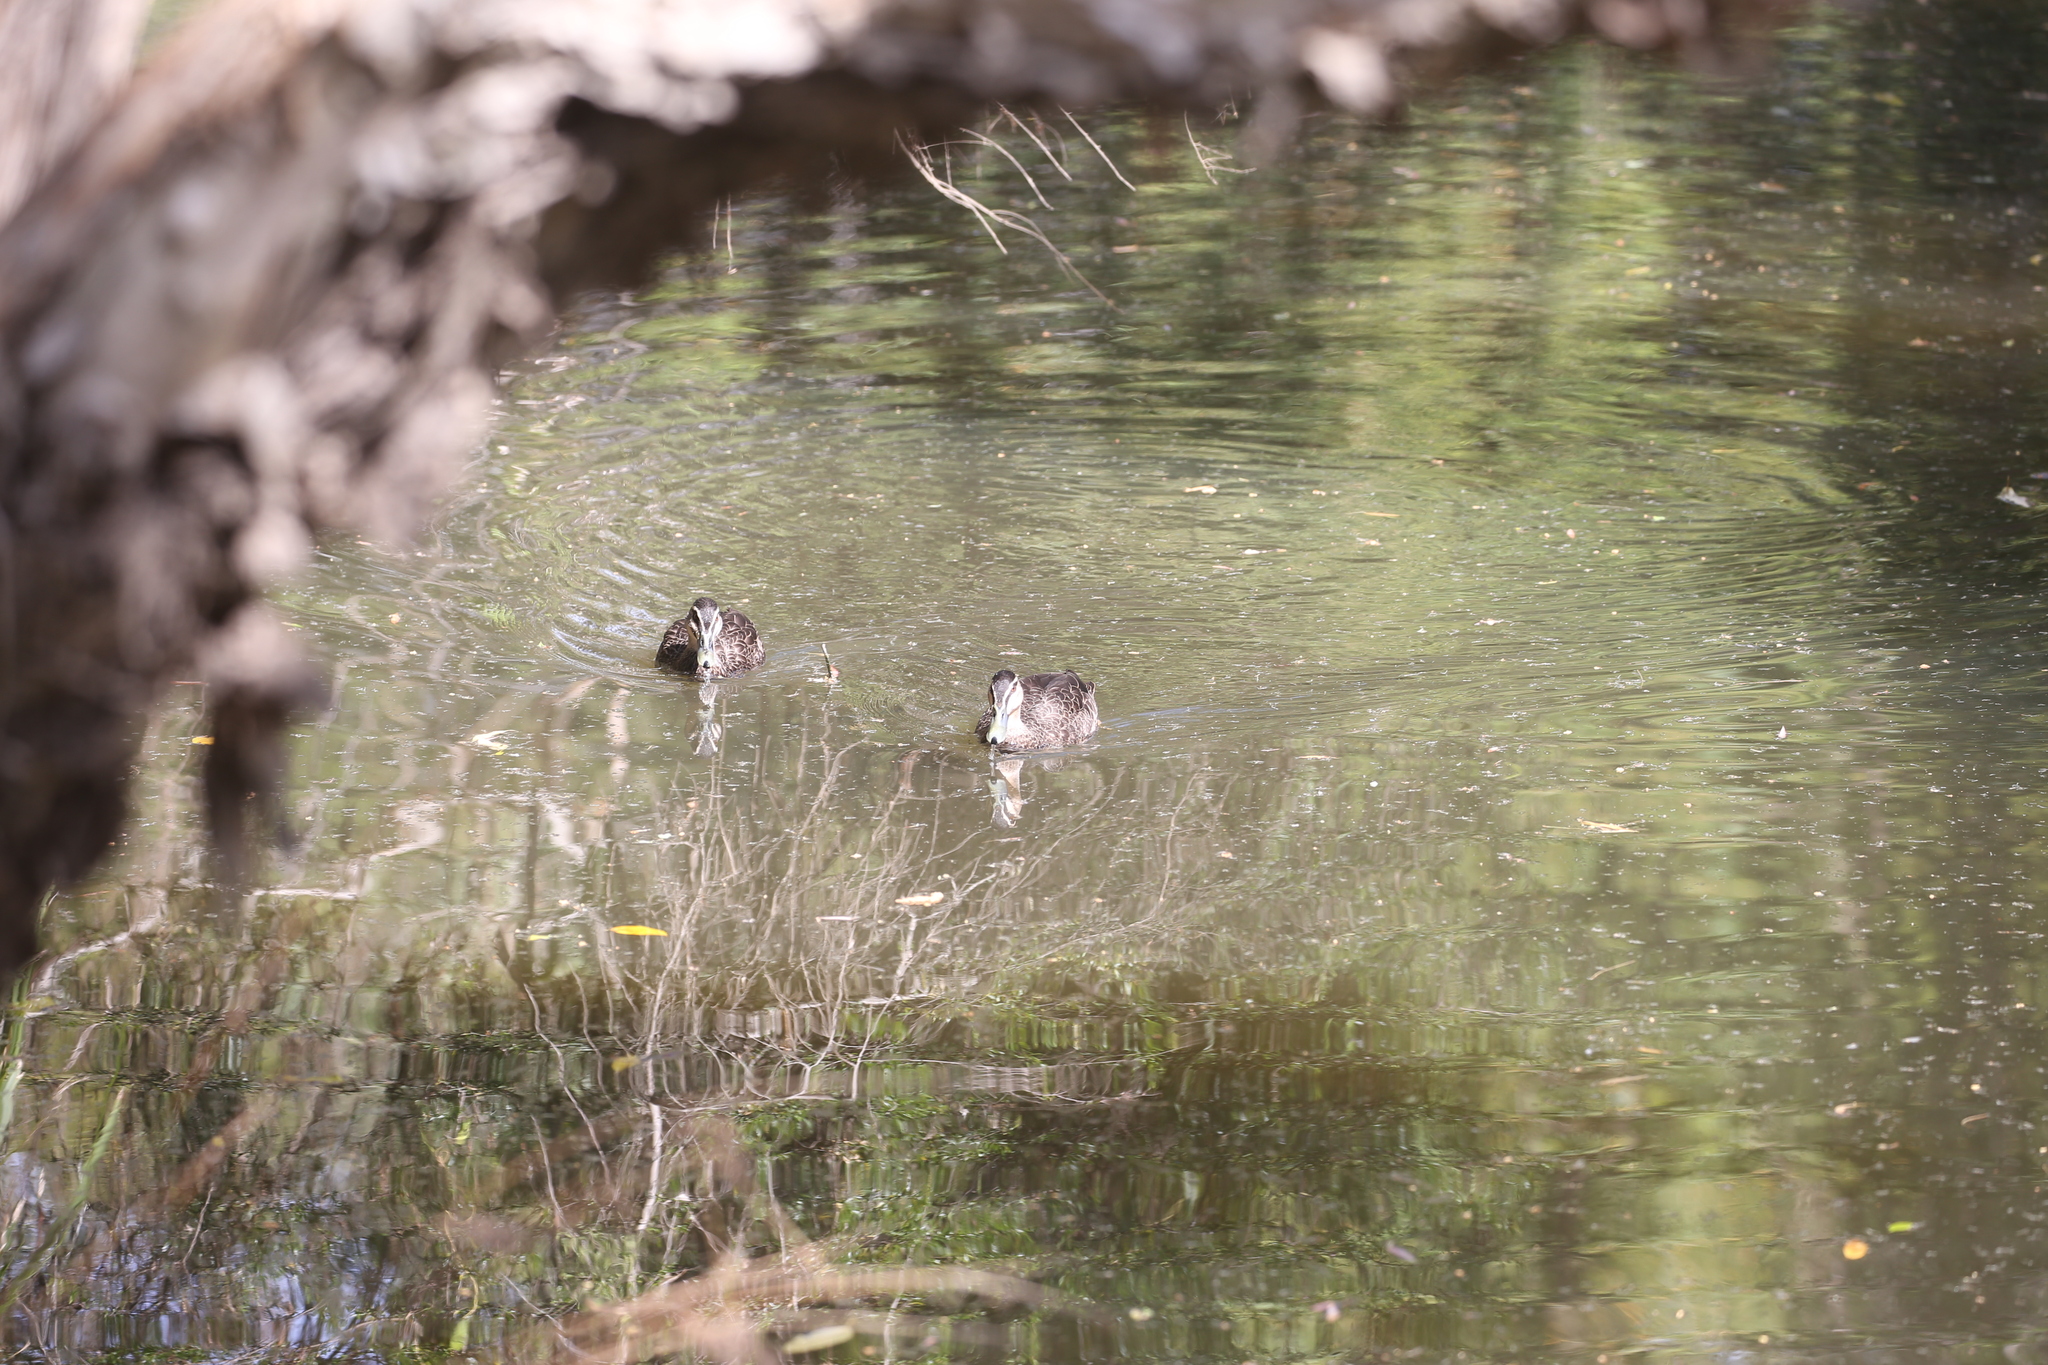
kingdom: Animalia
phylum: Chordata
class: Aves
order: Anseriformes
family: Anatidae
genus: Anas
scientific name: Anas superciliosa
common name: Pacific black duck
